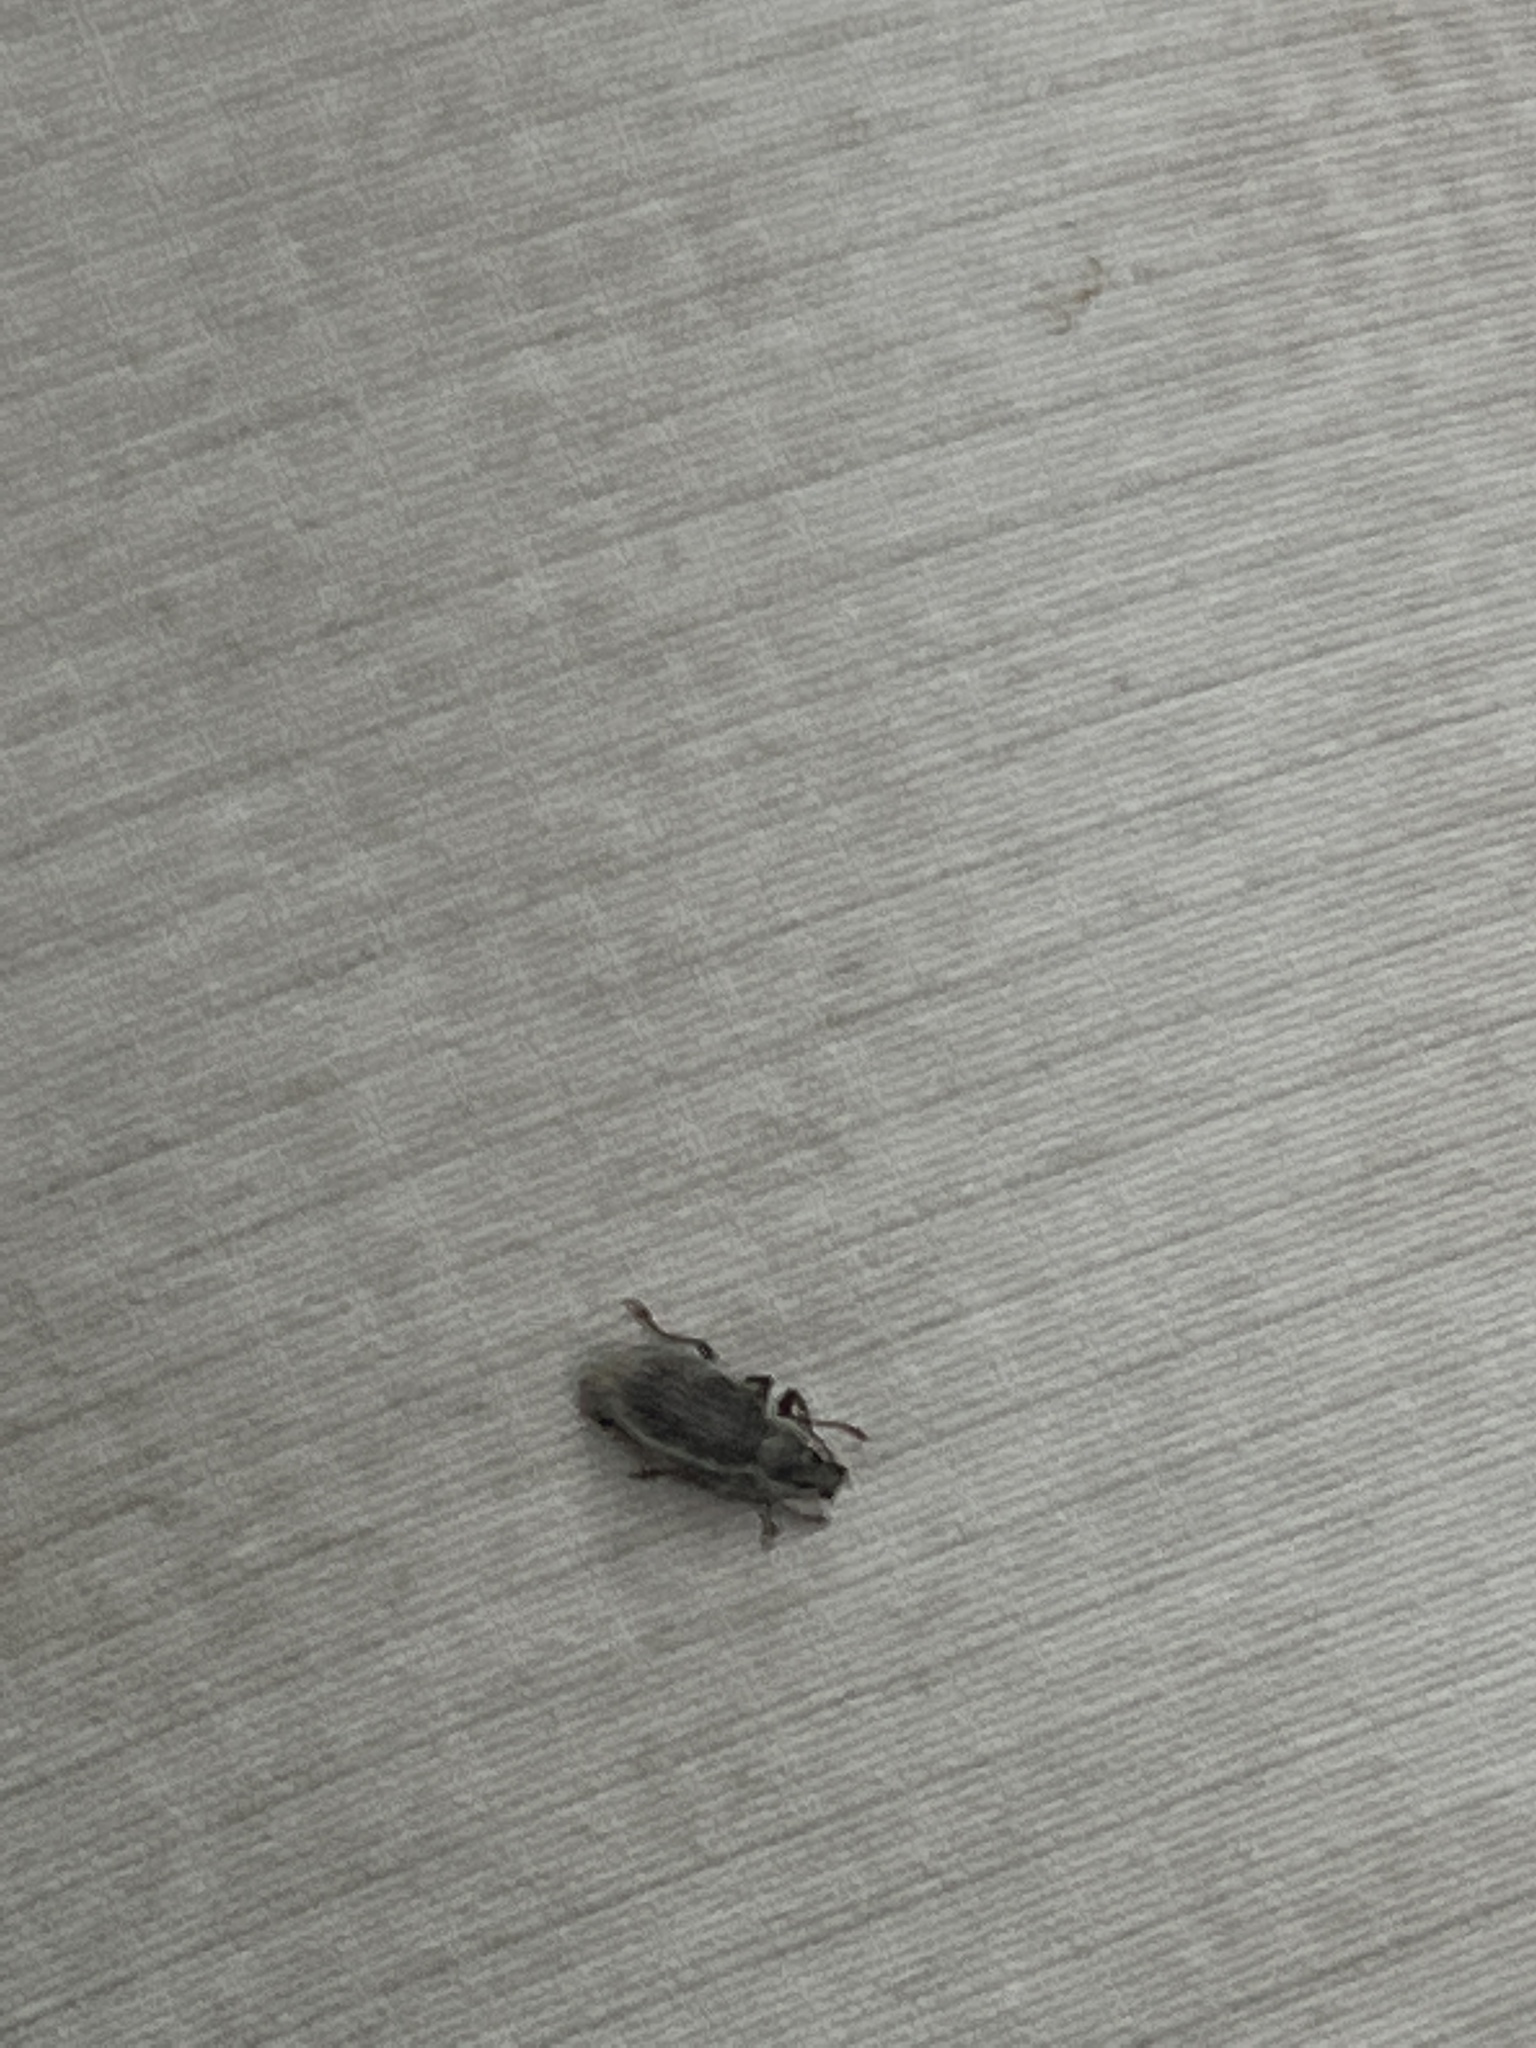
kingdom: Animalia
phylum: Arthropoda
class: Insecta
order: Coleoptera
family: Curculionidae
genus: Cyrtepistomus
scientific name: Cyrtepistomus castaneus
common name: Weevil
